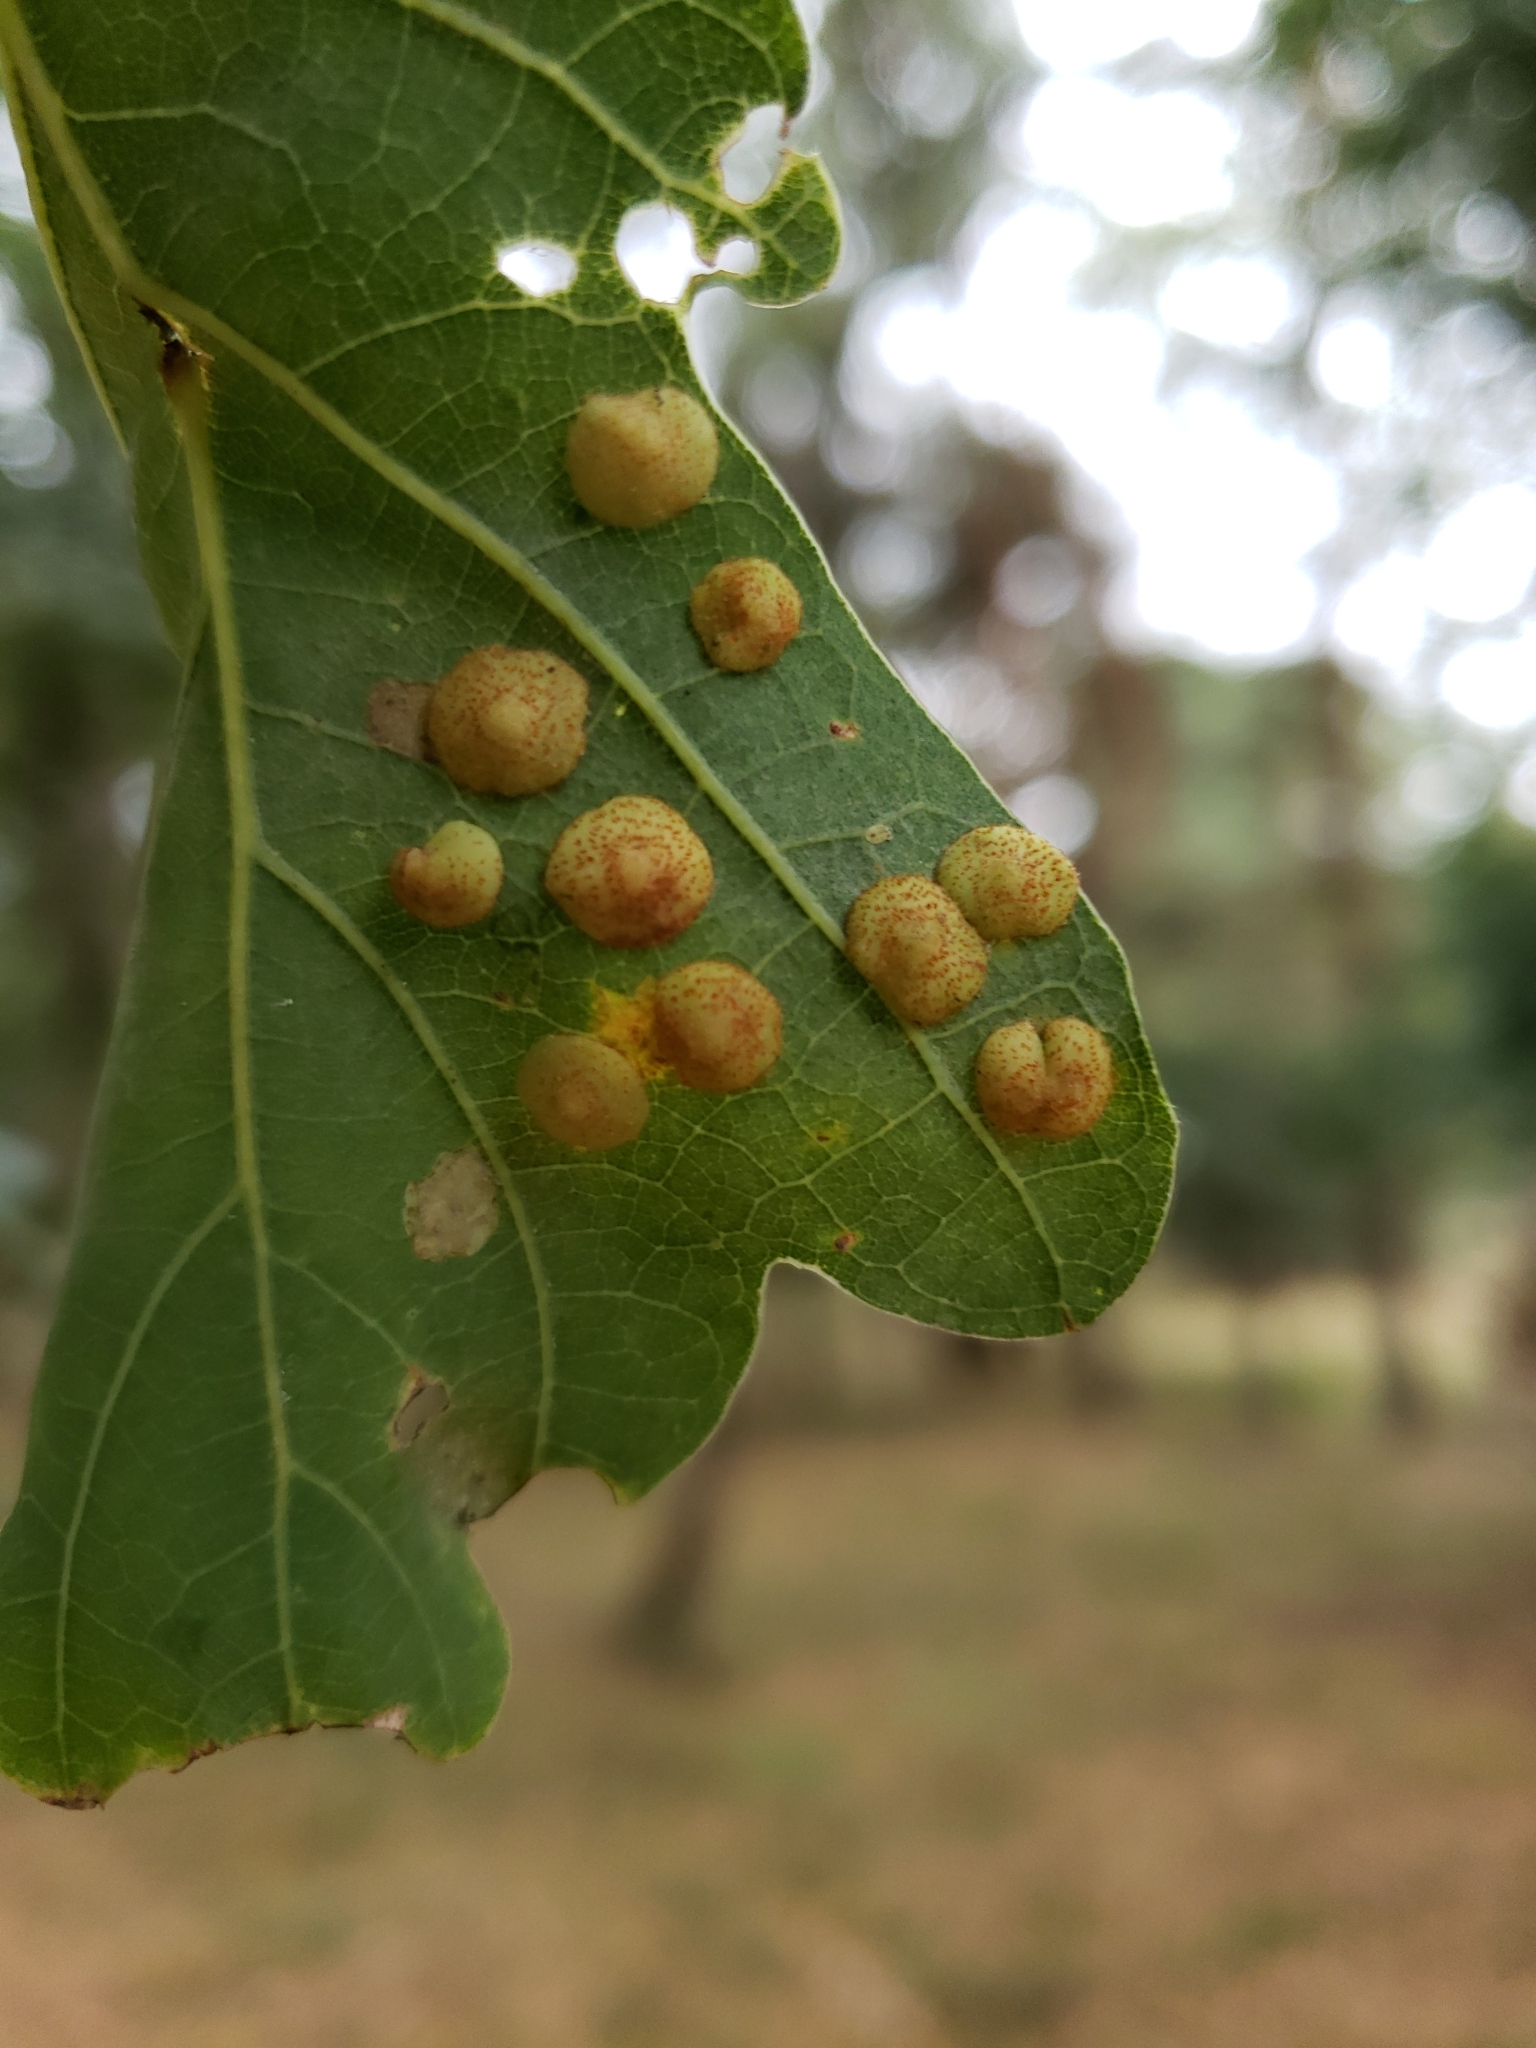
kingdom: Animalia
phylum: Arthropoda
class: Insecta
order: Hymenoptera
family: Cynipidae
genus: Neuroterus
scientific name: Neuroterus quercusbaccarum
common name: Common spangle gall
